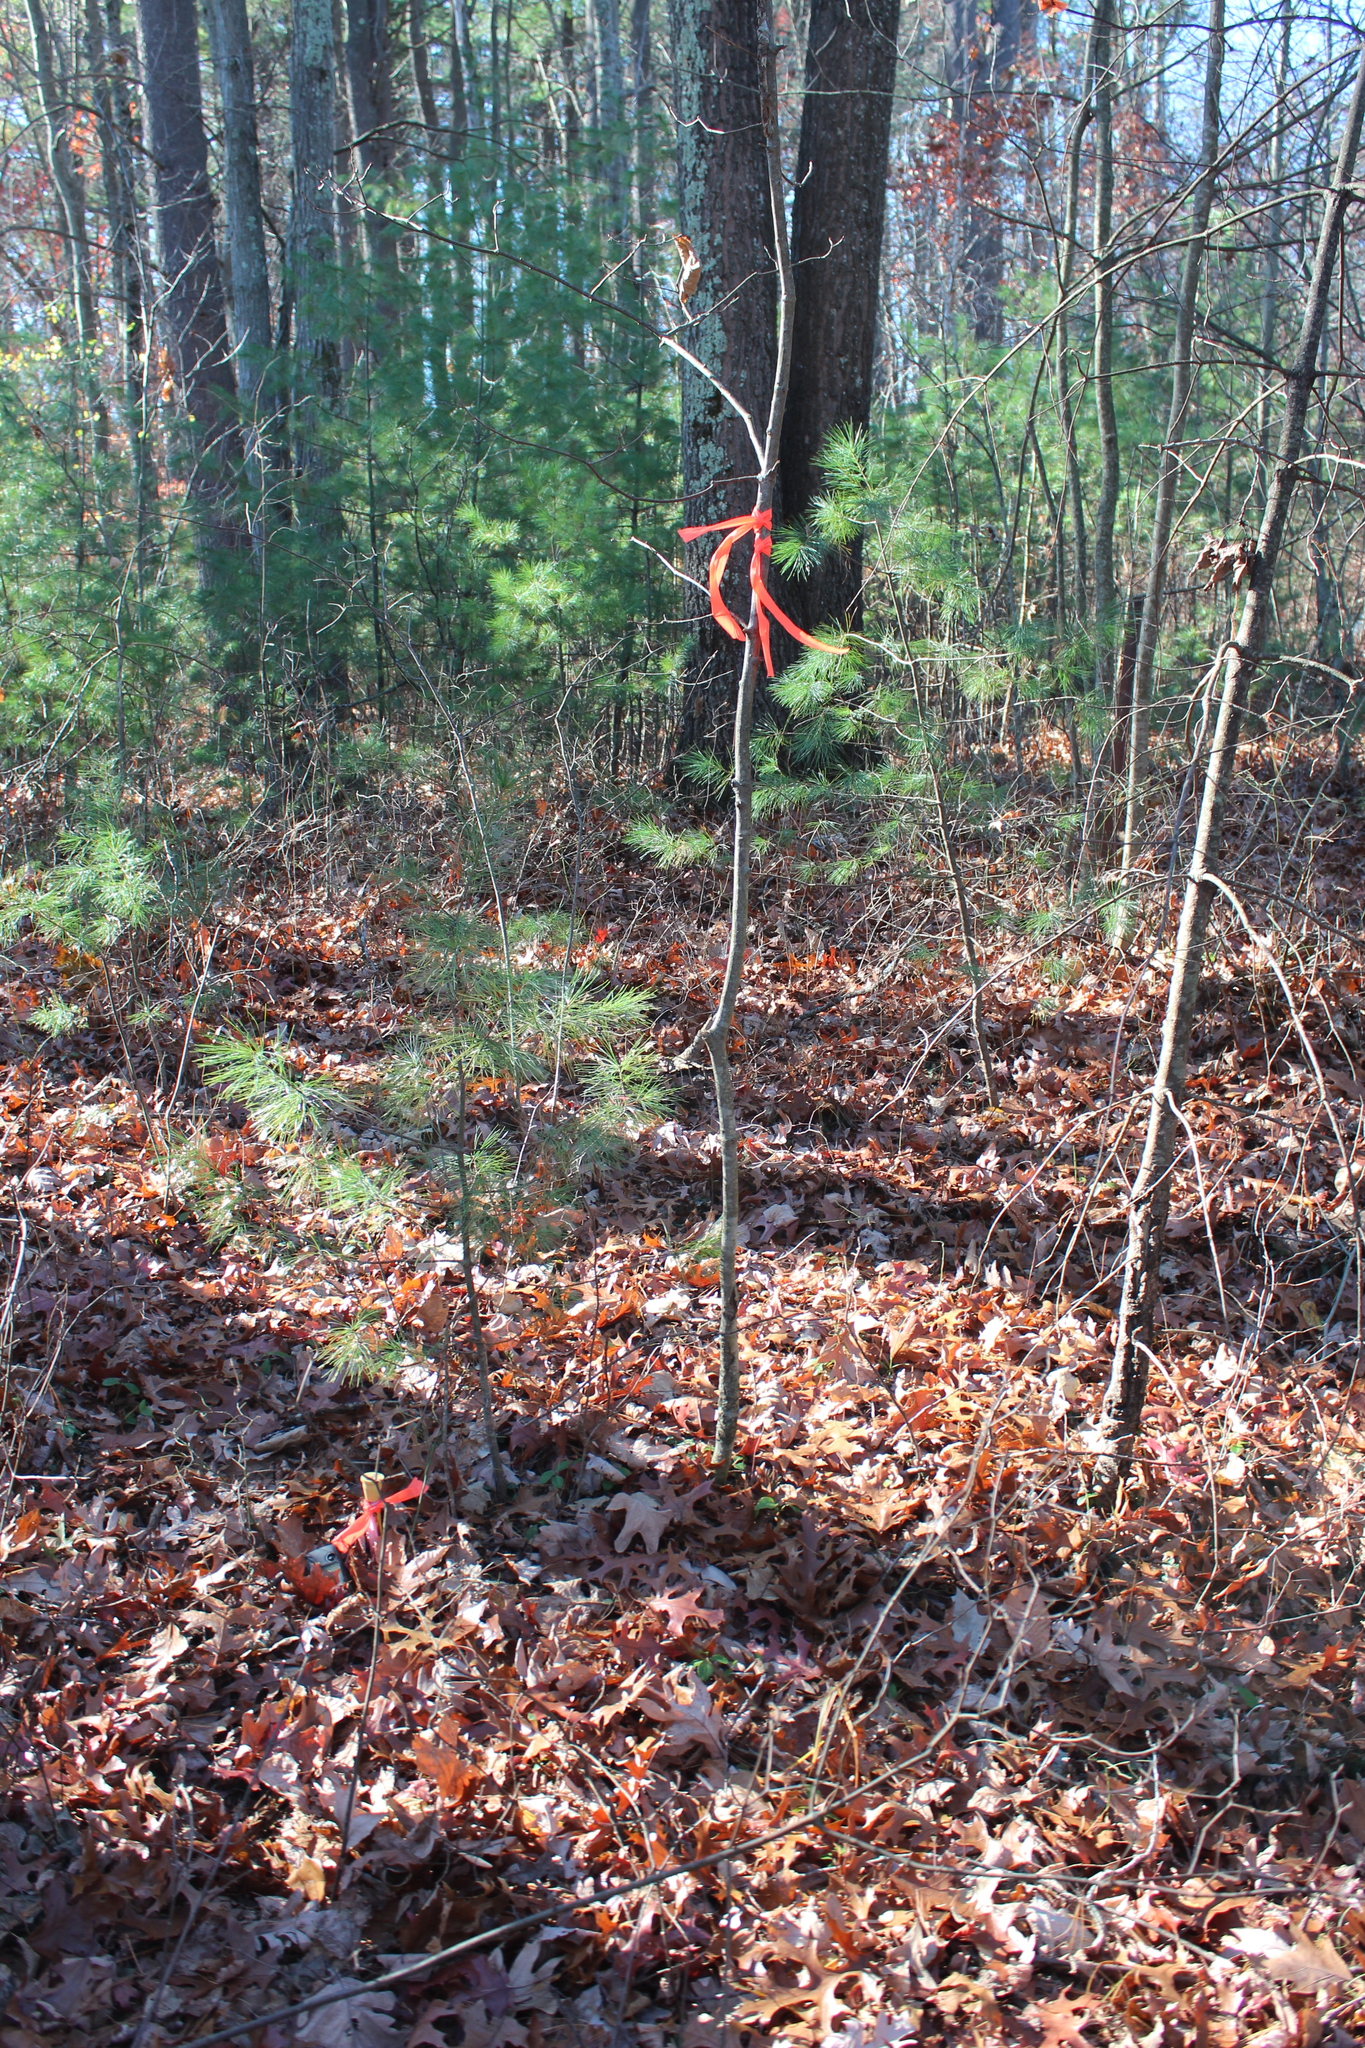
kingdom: Plantae
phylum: Tracheophyta
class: Pinopsida
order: Pinales
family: Pinaceae
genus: Pinus
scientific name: Pinus strobus
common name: Weymouth pine
